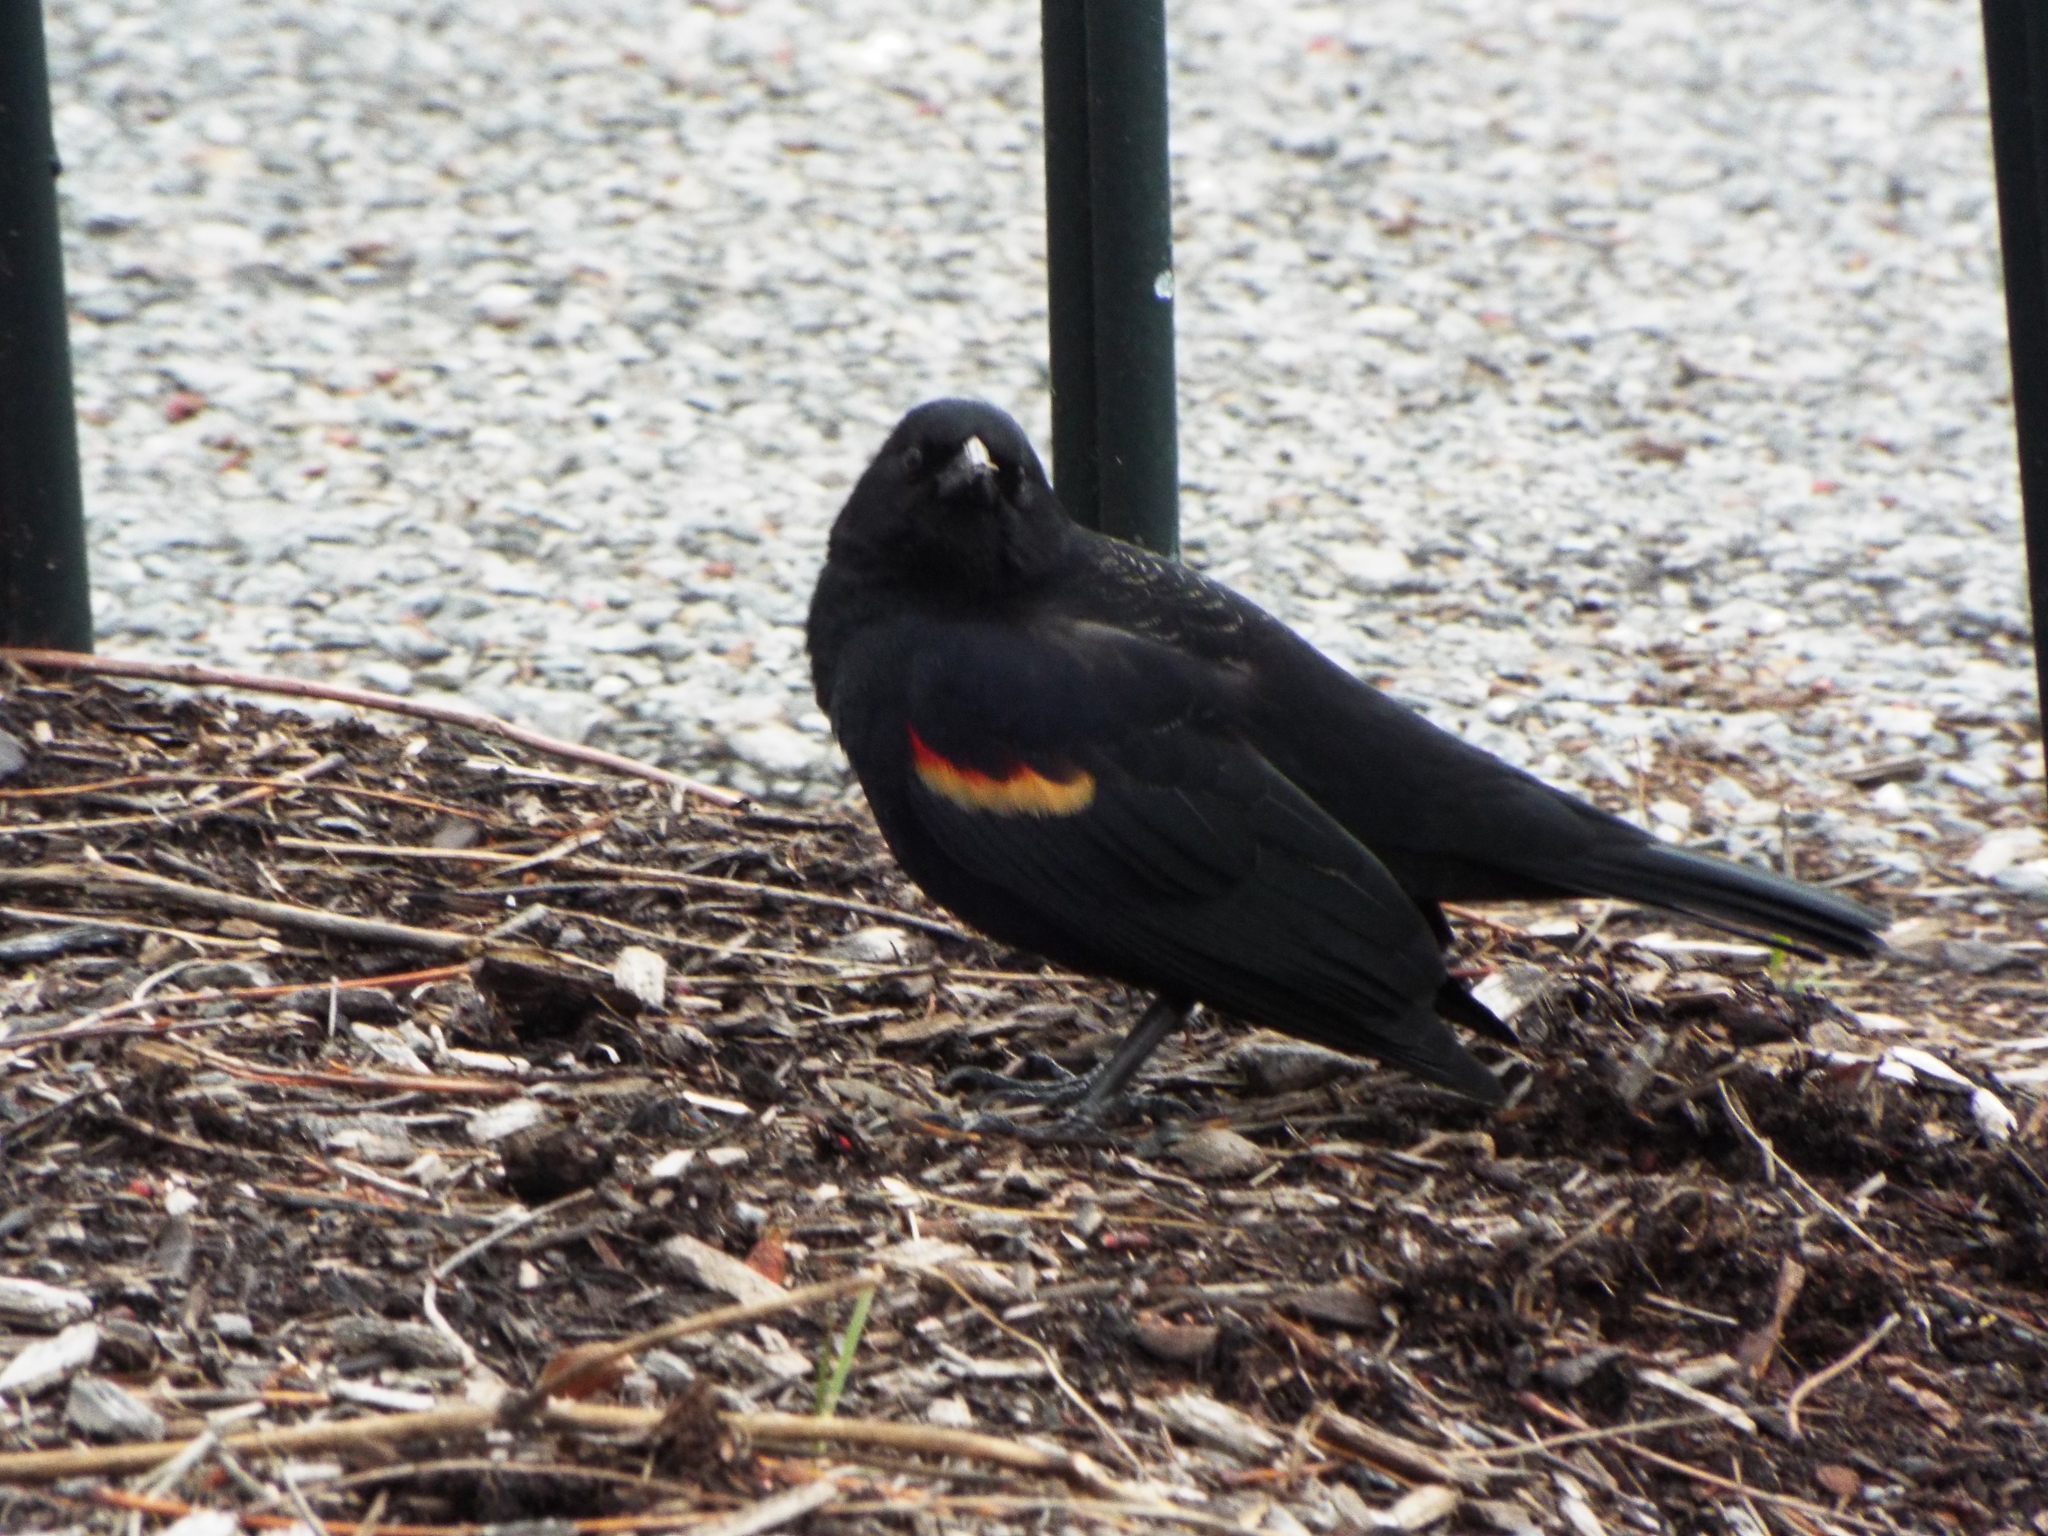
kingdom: Animalia
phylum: Chordata
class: Aves
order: Passeriformes
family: Icteridae
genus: Agelaius
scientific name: Agelaius phoeniceus
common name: Red-winged blackbird
